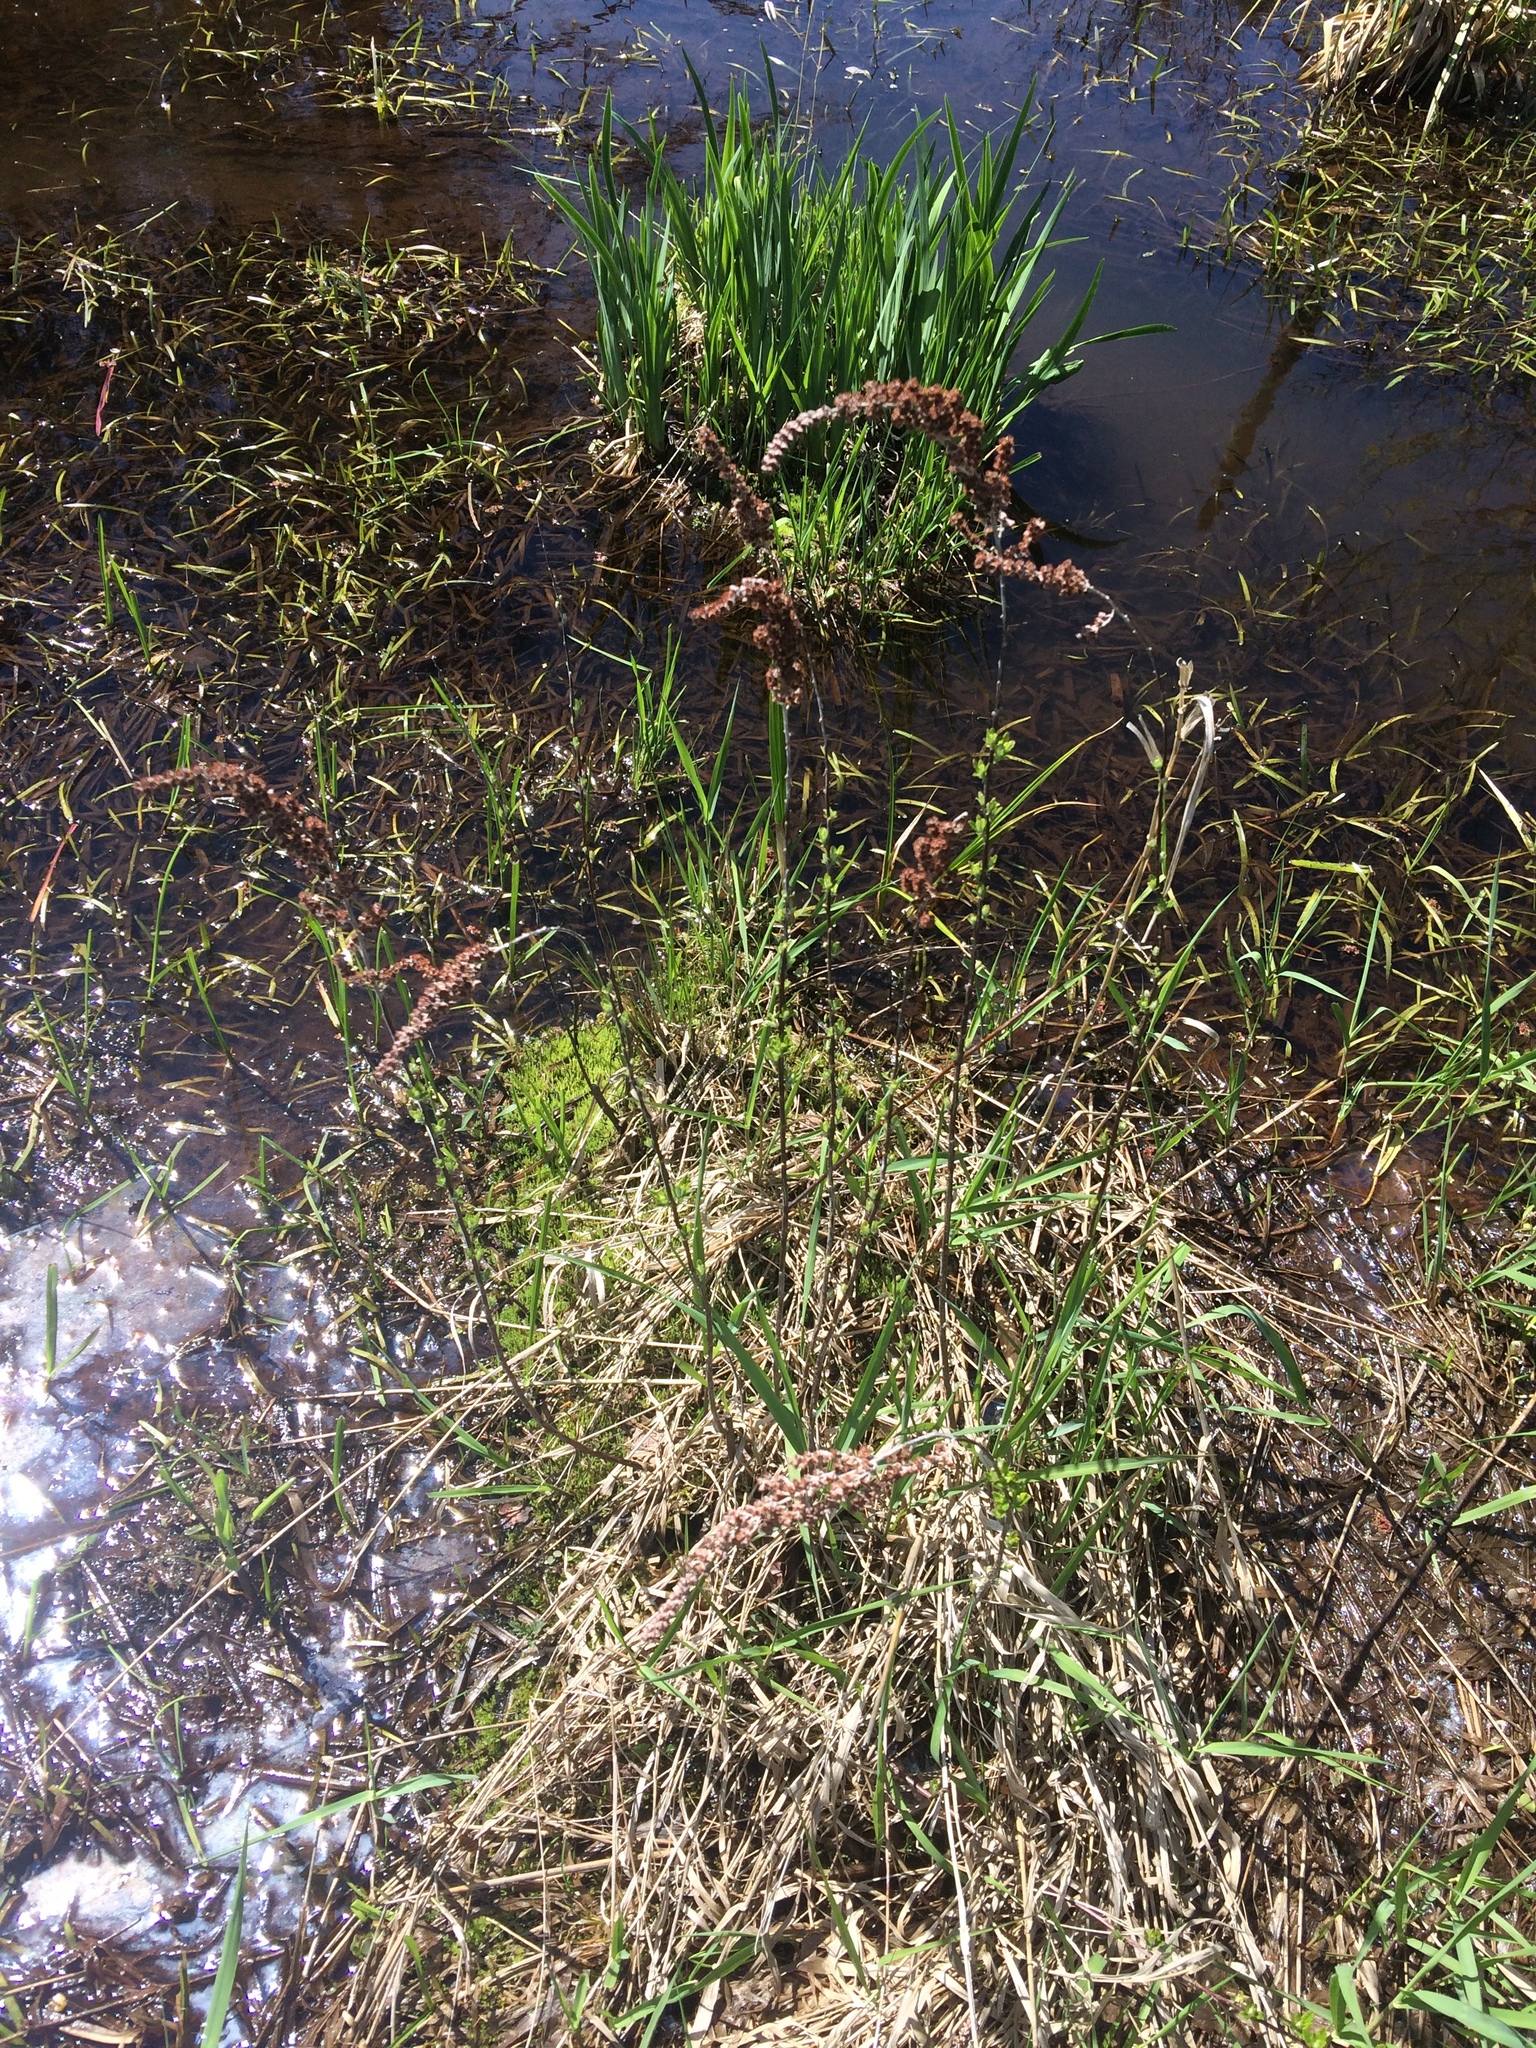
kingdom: Plantae
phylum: Tracheophyta
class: Magnoliopsida
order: Rosales
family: Rosaceae
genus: Spiraea
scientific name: Spiraea tomentosa
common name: Hardhack
